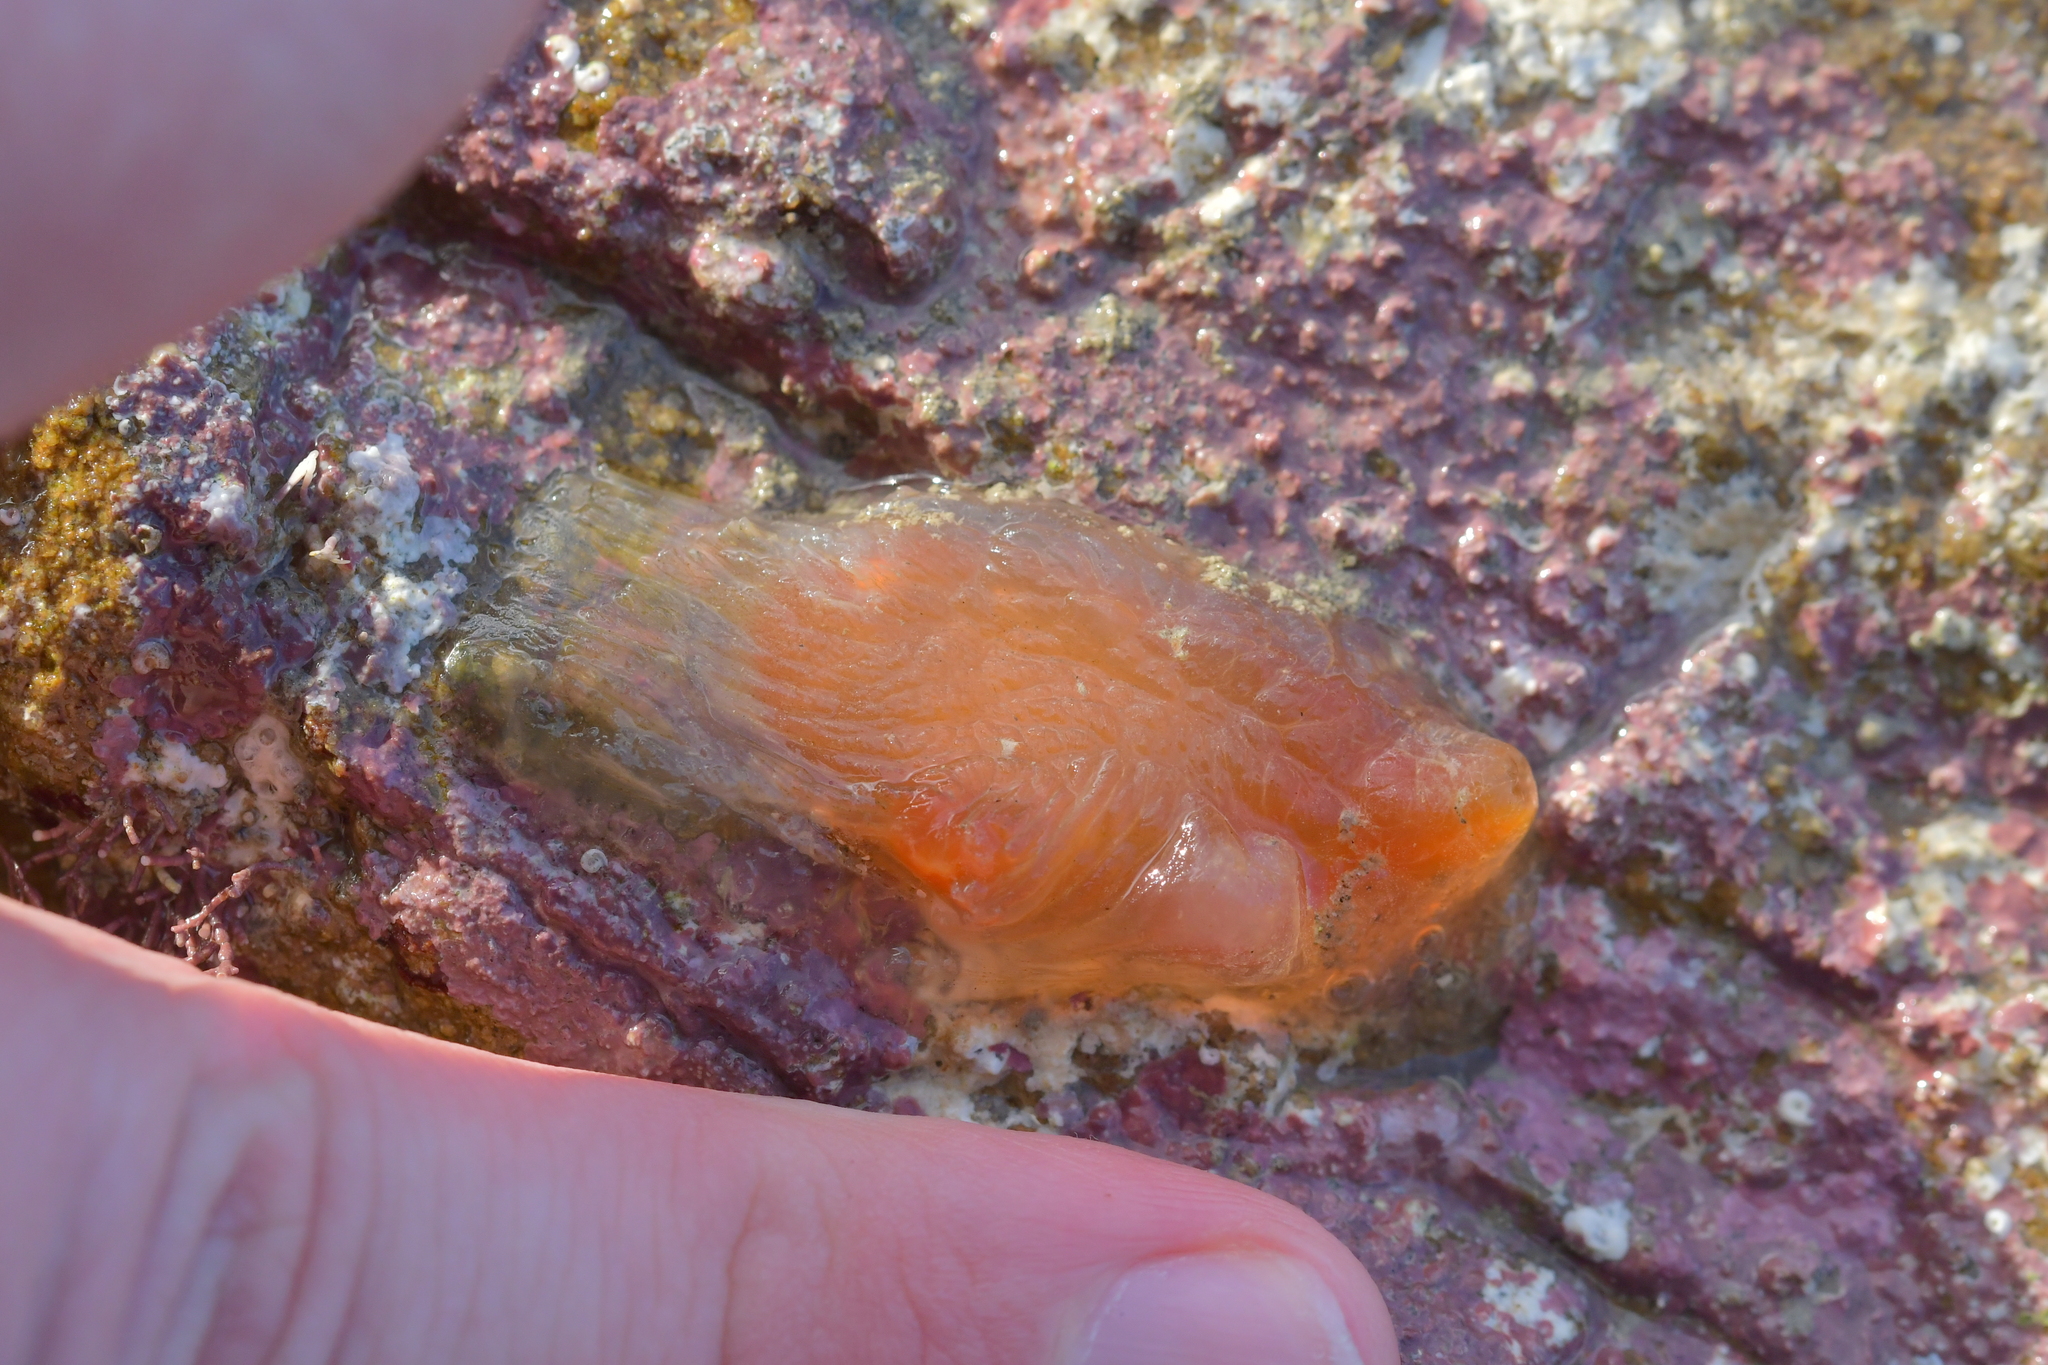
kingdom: Animalia
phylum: Chordata
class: Ascidiacea
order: Phlebobranchia
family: Corellidae
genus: Corella
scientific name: Corella eumyota
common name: Orange-tipped sea squirt
